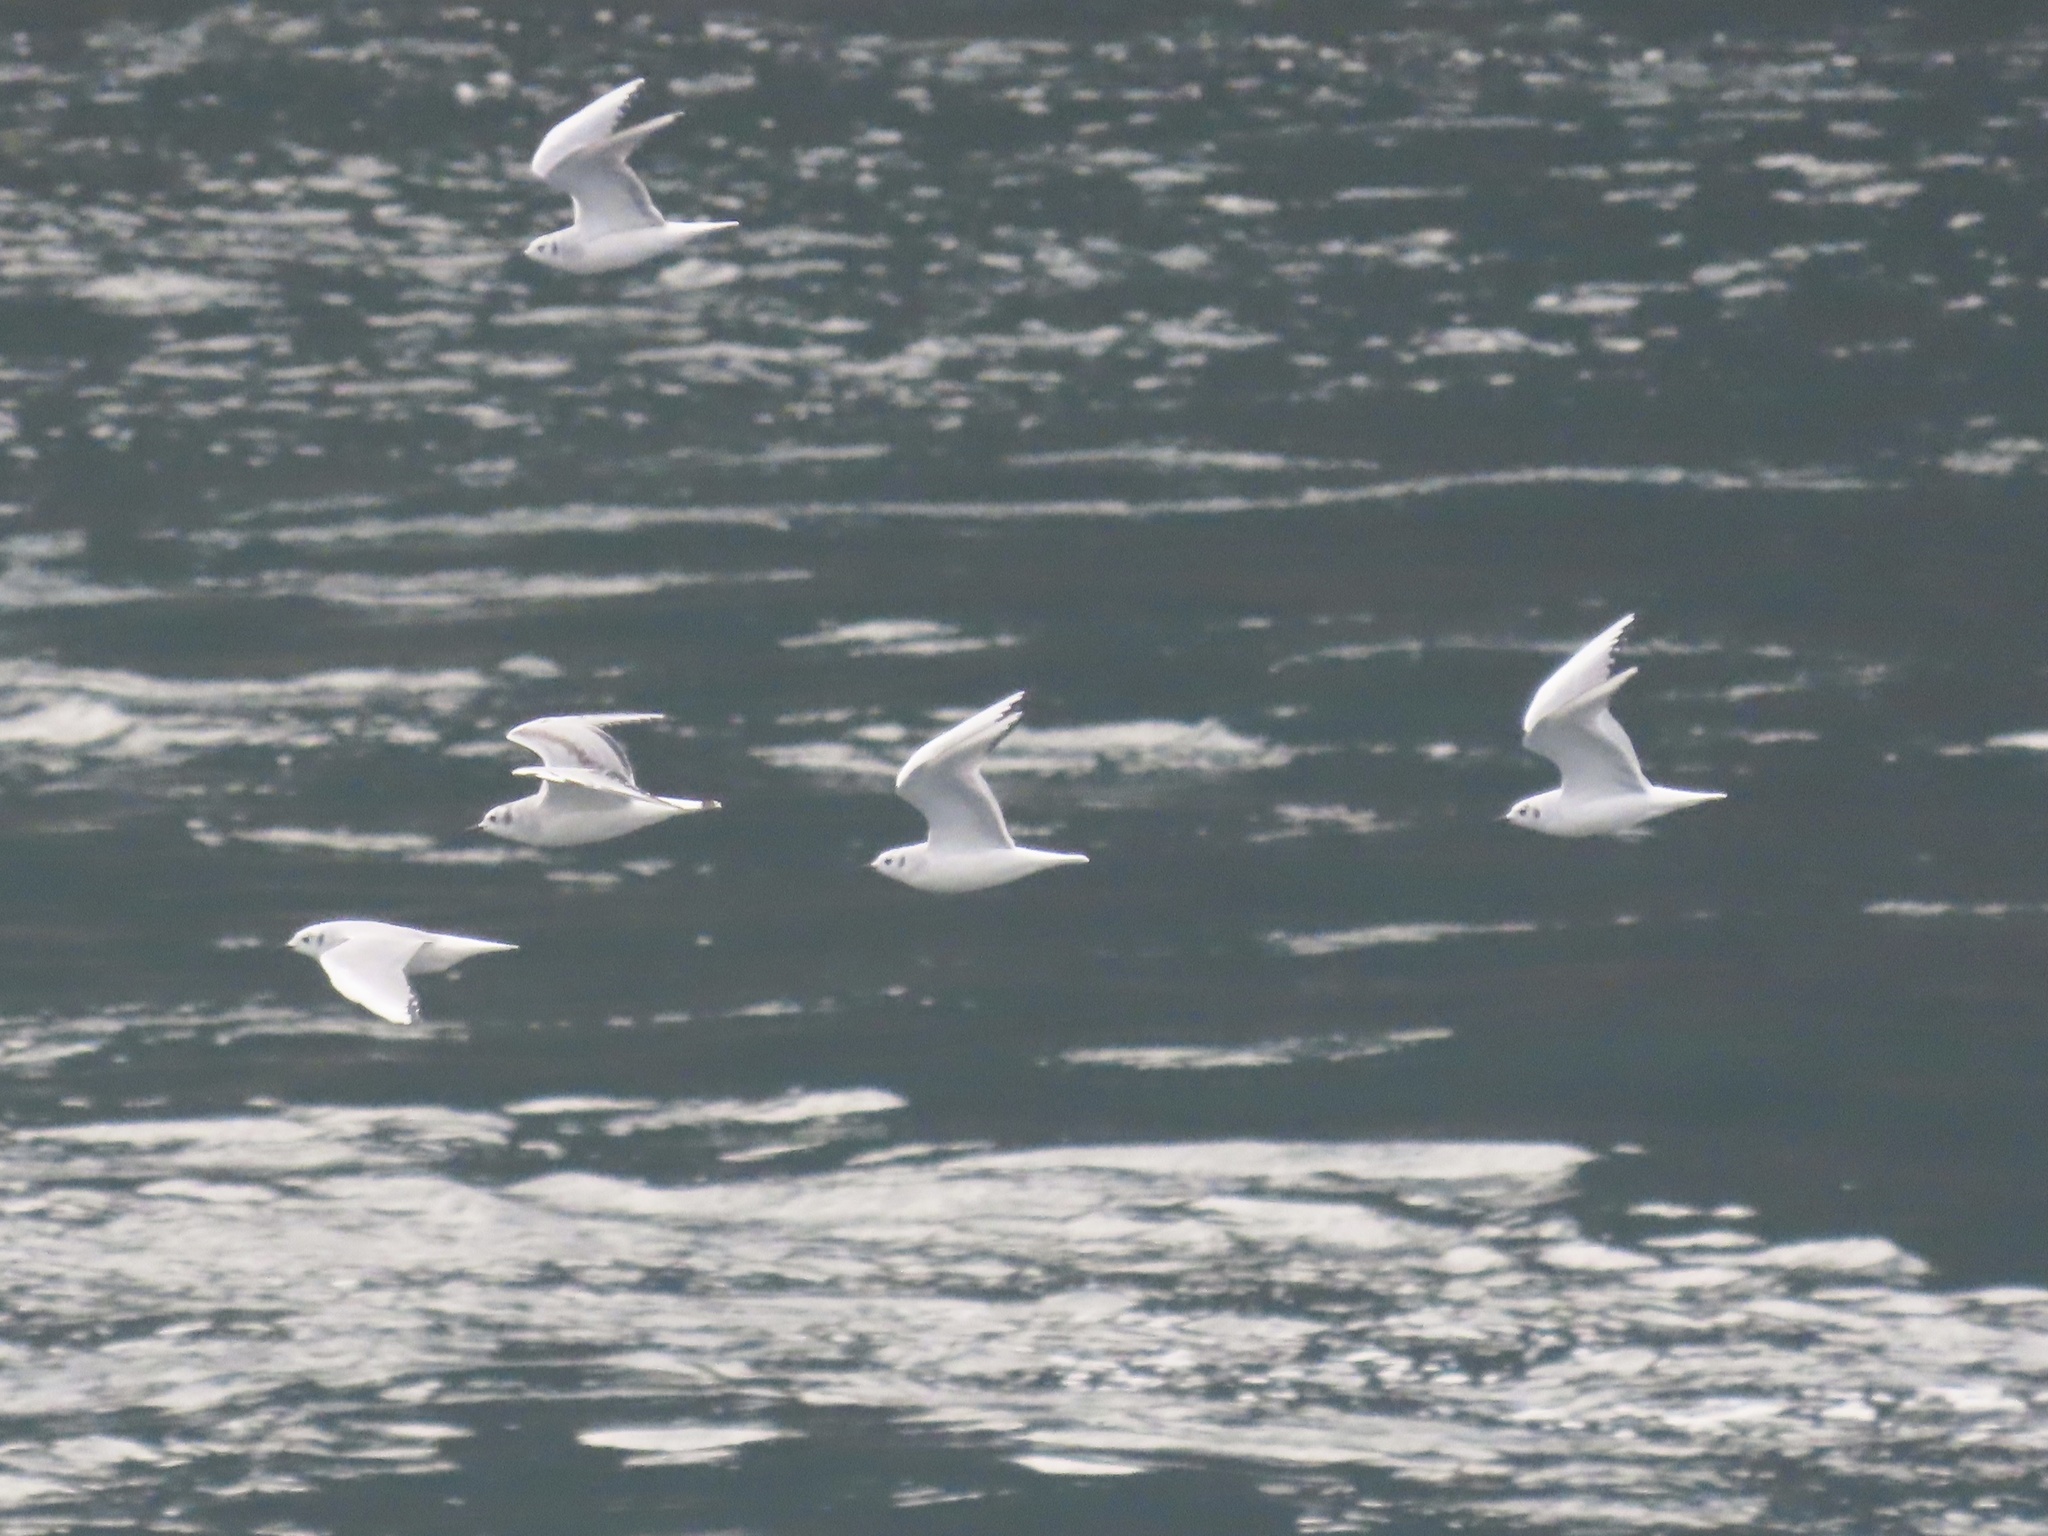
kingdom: Animalia
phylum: Chordata
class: Aves
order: Charadriiformes
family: Laridae
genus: Chroicocephalus
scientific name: Chroicocephalus philadelphia
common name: Bonaparte's gull
